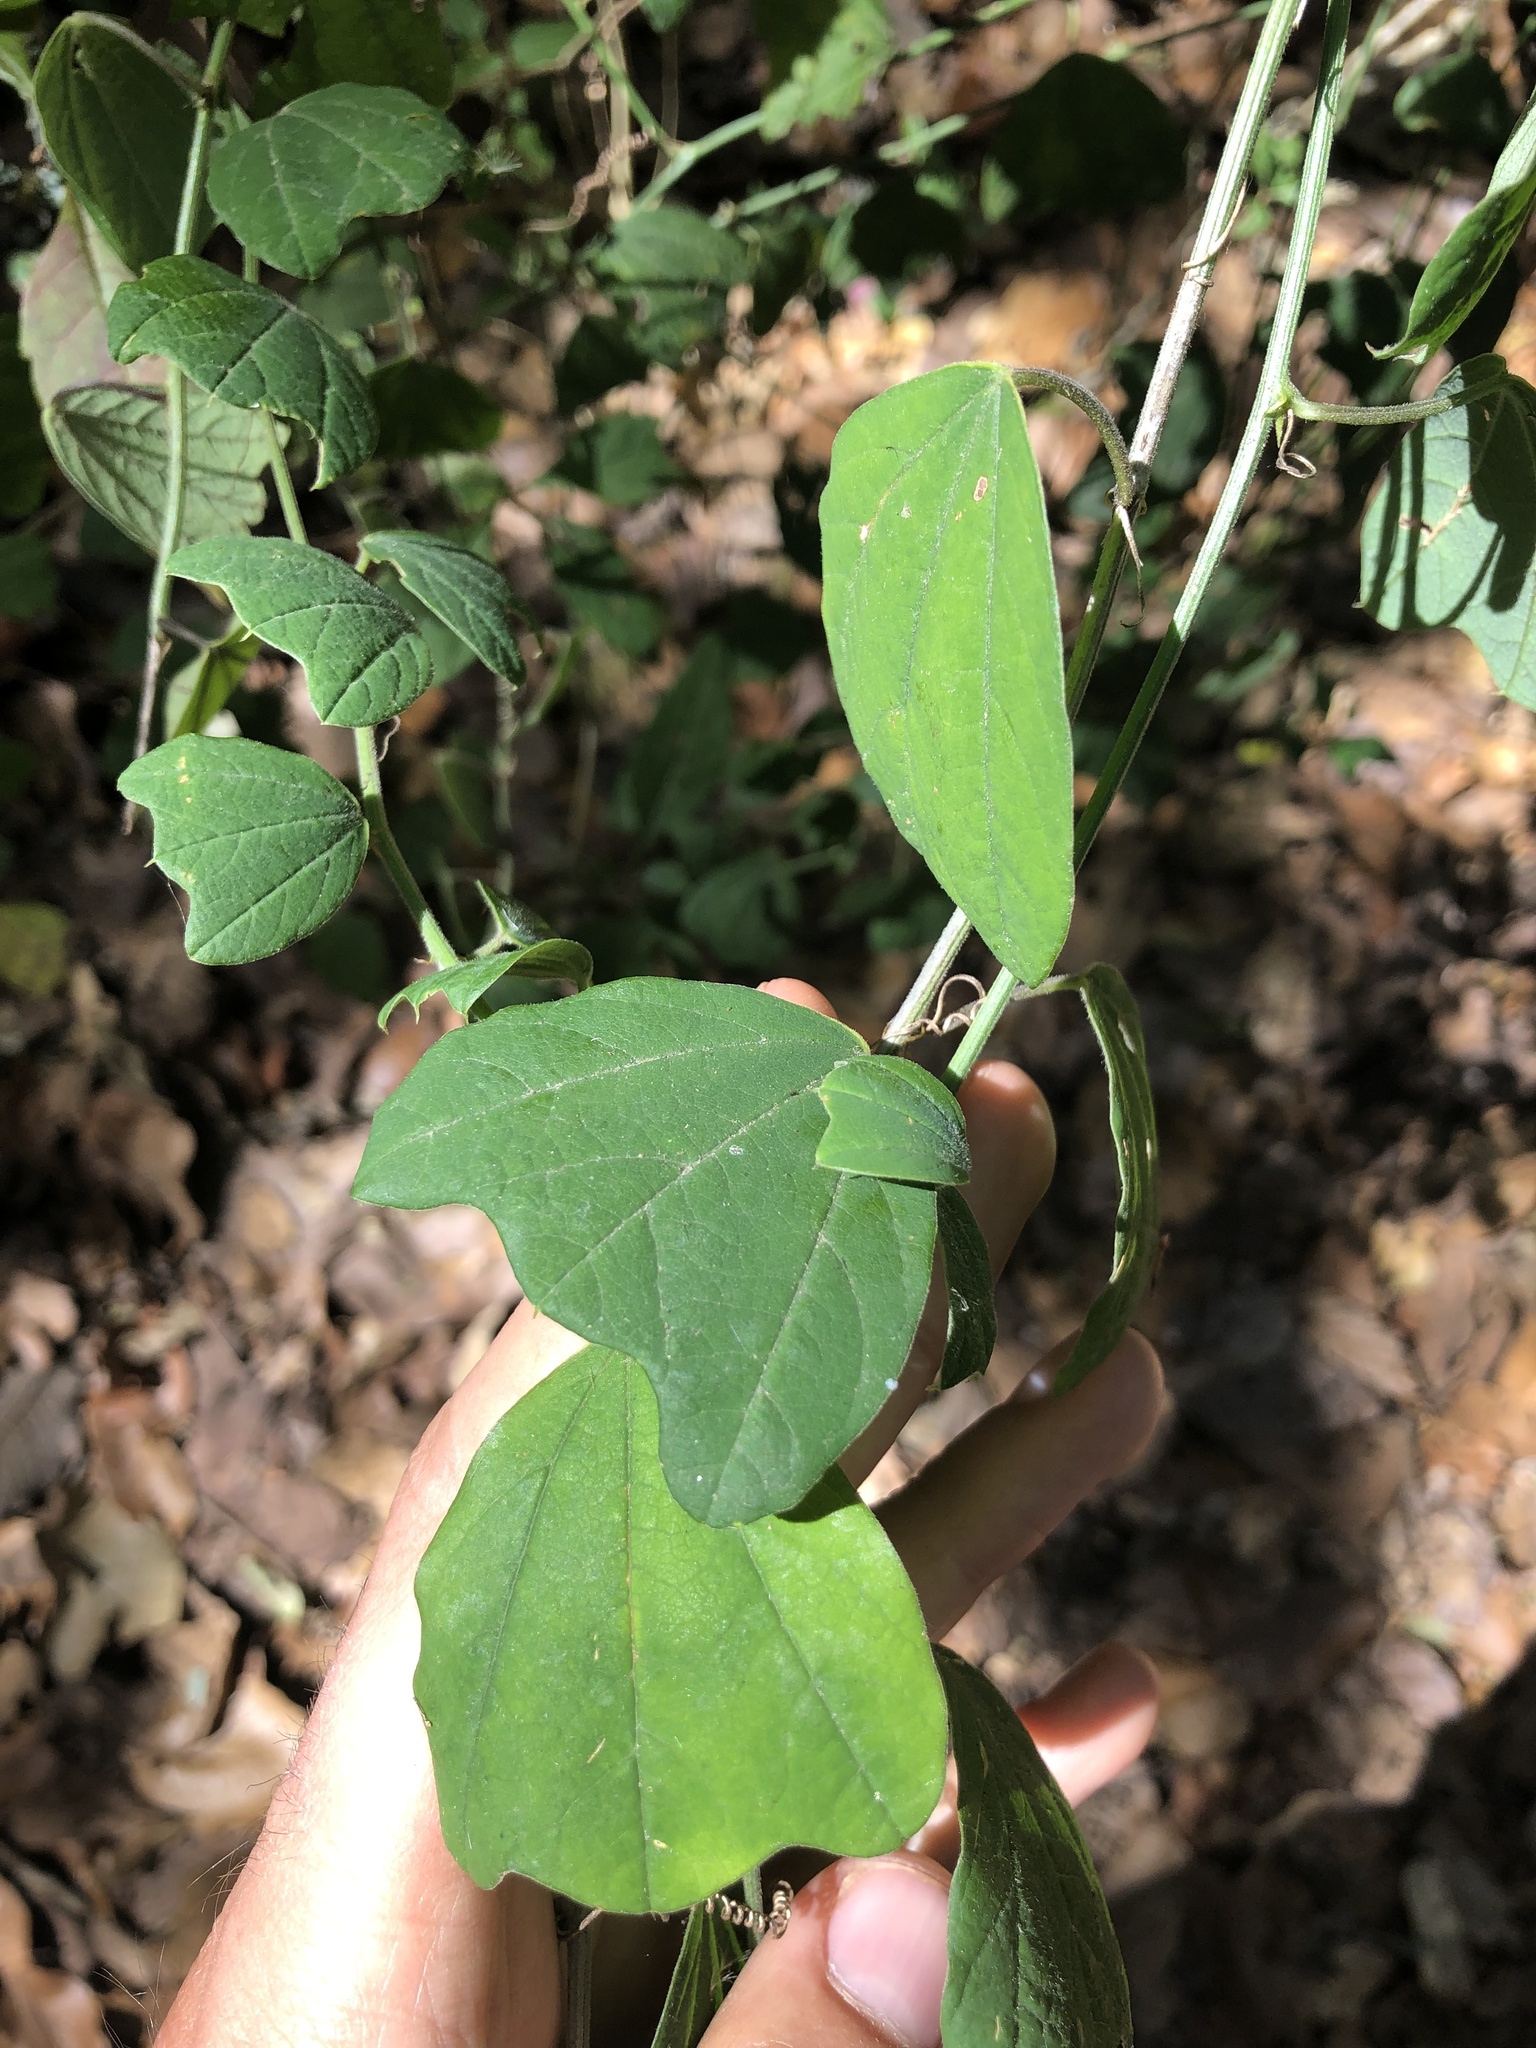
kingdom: Plantae
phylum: Tracheophyta
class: Magnoliopsida
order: Malpighiales
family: Passifloraceae
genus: Passiflora
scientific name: Passiflora pavonis
